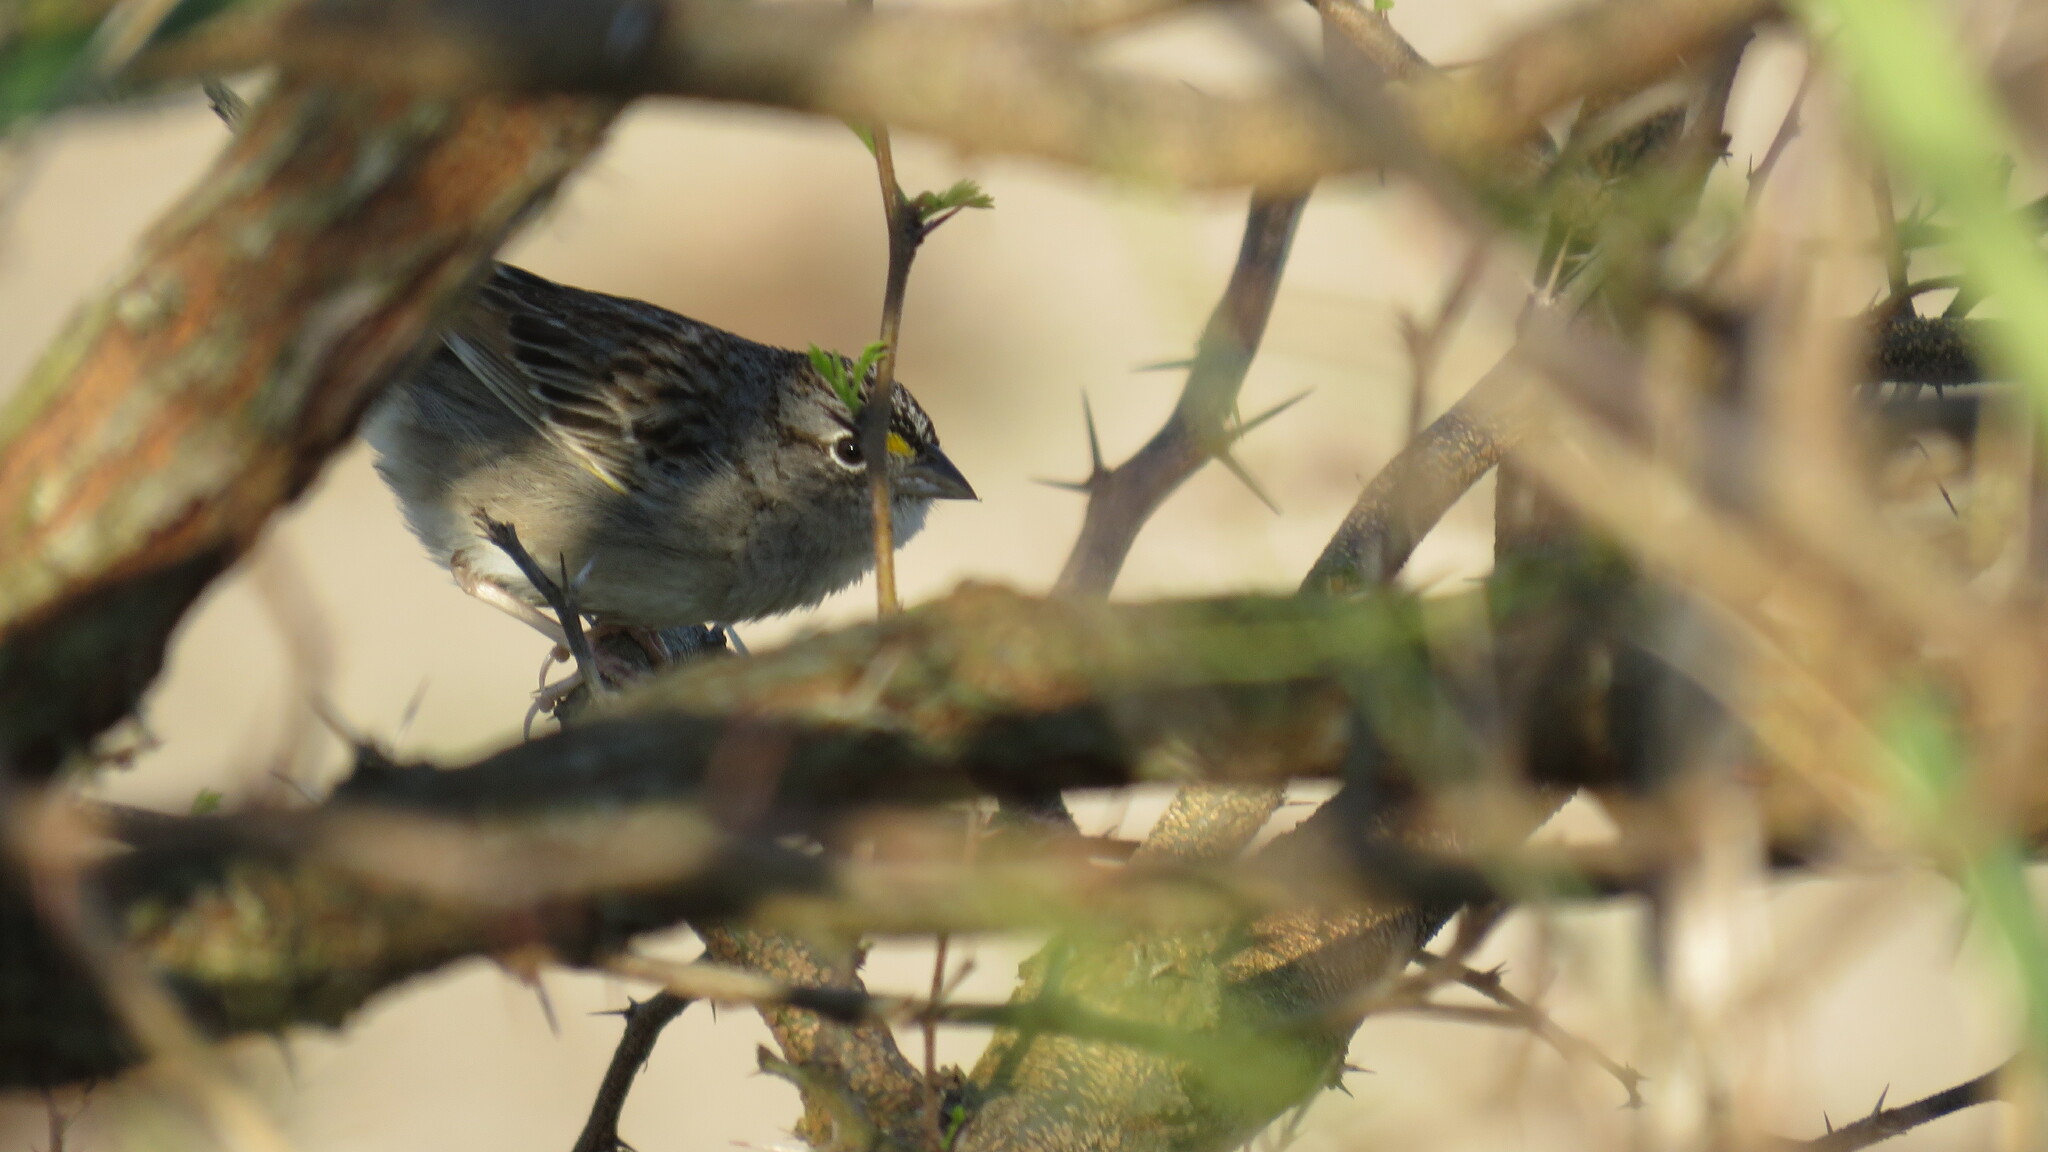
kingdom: Animalia
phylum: Chordata
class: Aves
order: Passeriformes
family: Passerellidae
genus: Ammodramus
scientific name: Ammodramus humeralis
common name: Grassland sparrow
